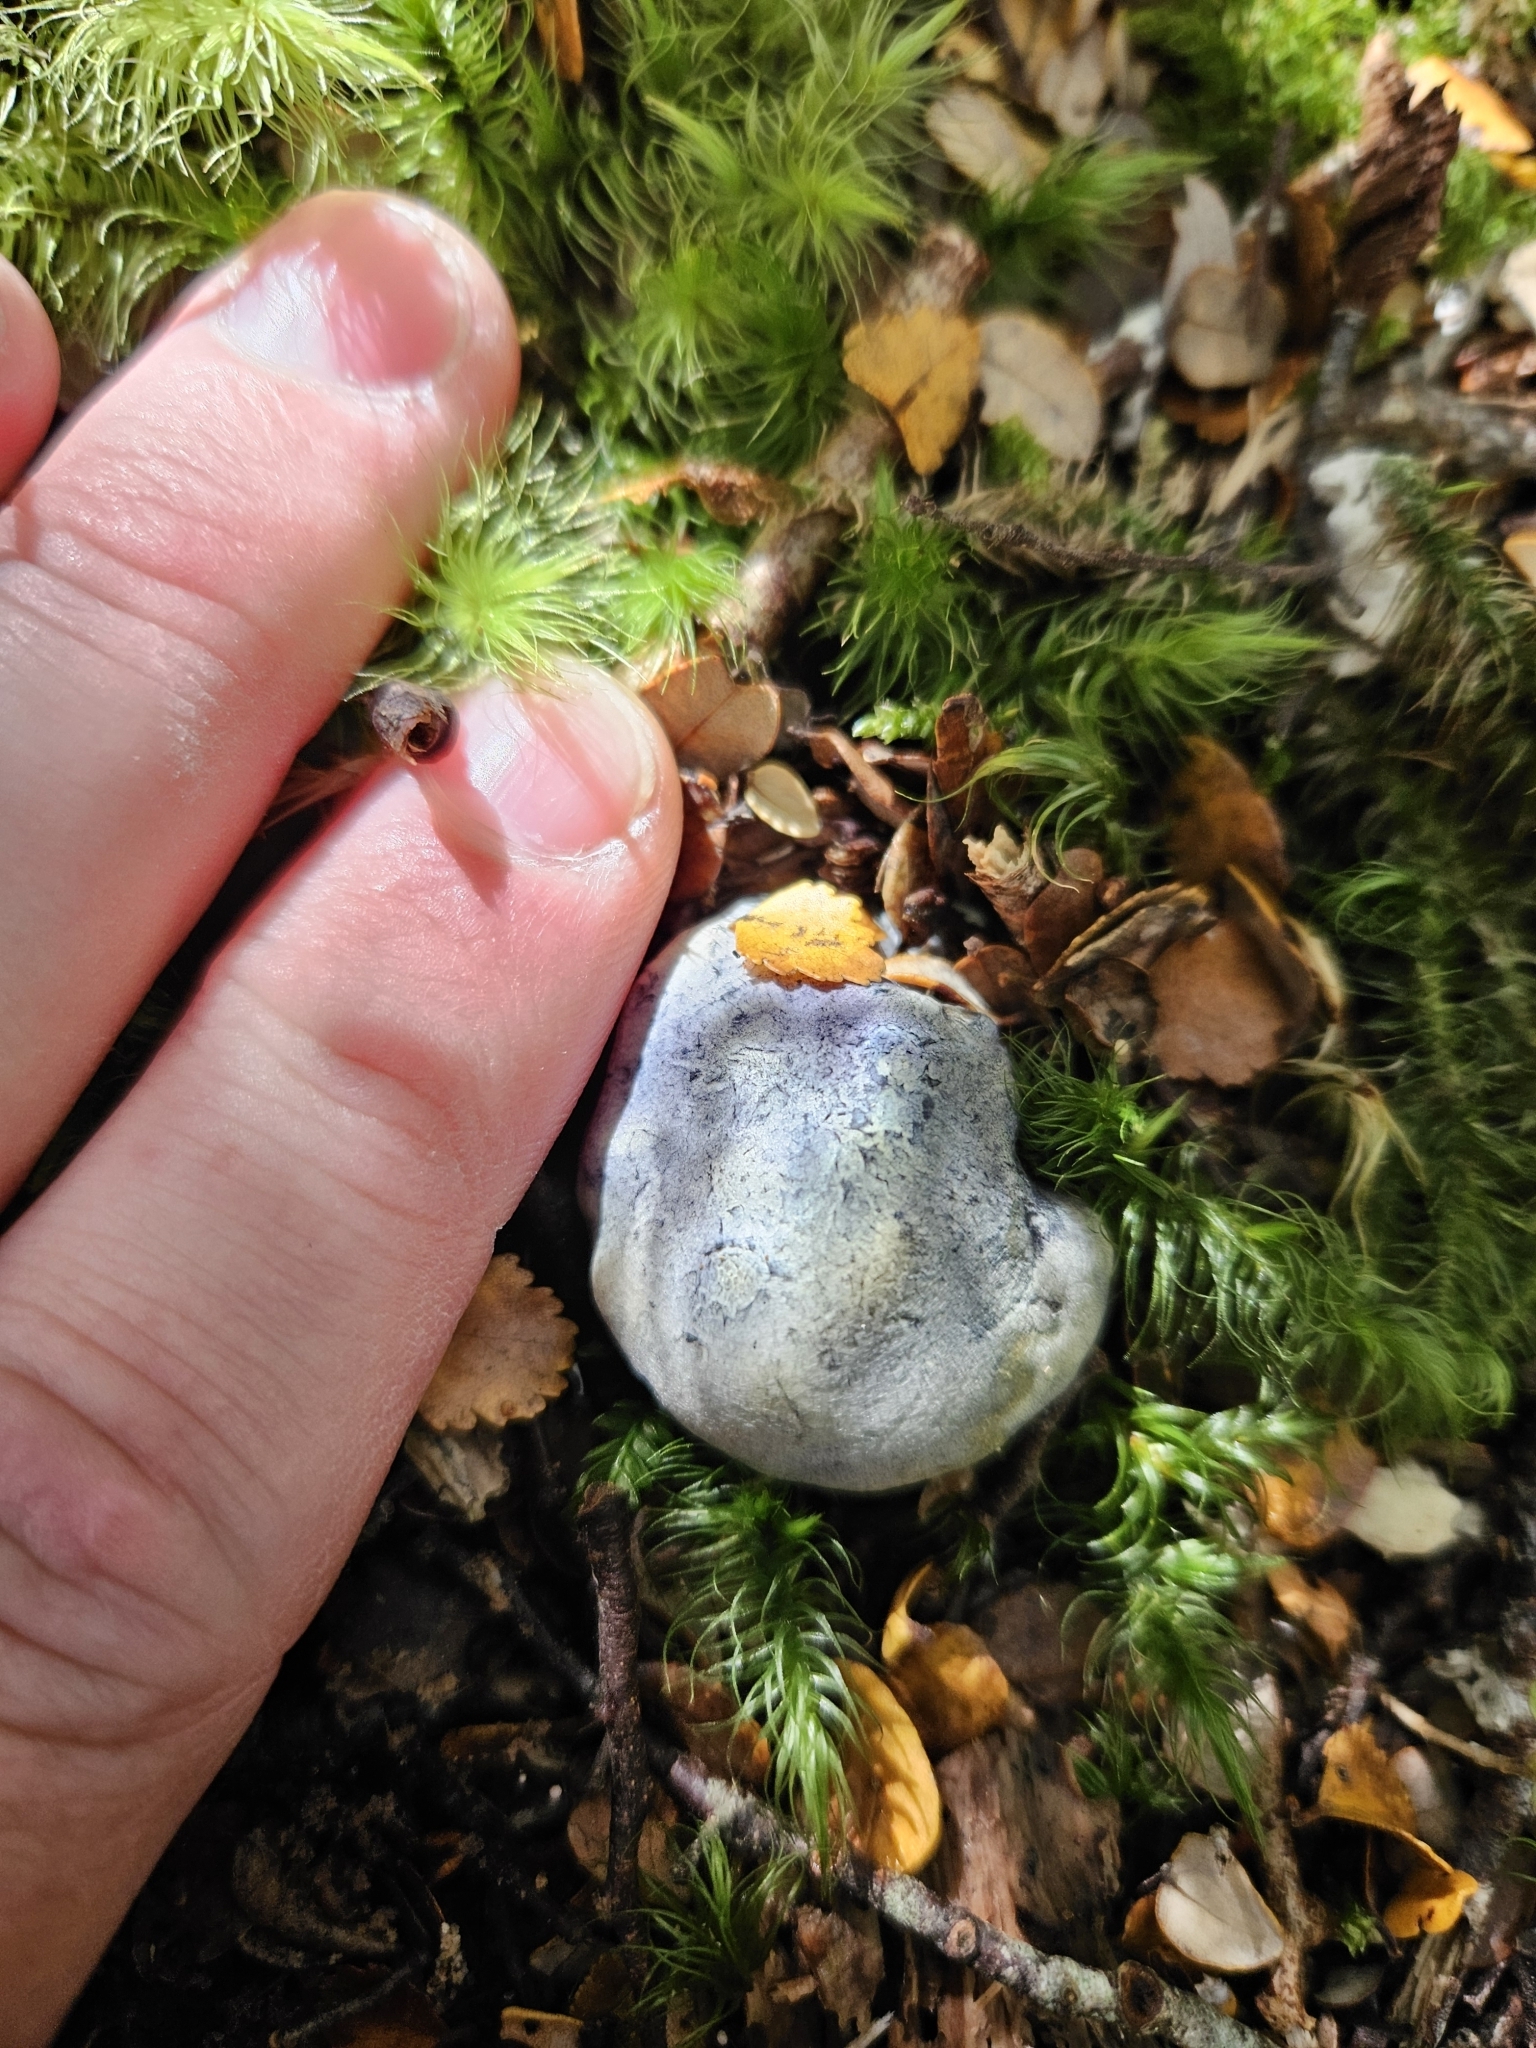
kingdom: Fungi
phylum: Basidiomycota
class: Agaricomycetes
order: Boletales
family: Boletaceae
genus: Leccinum
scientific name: Leccinum pachyderme
